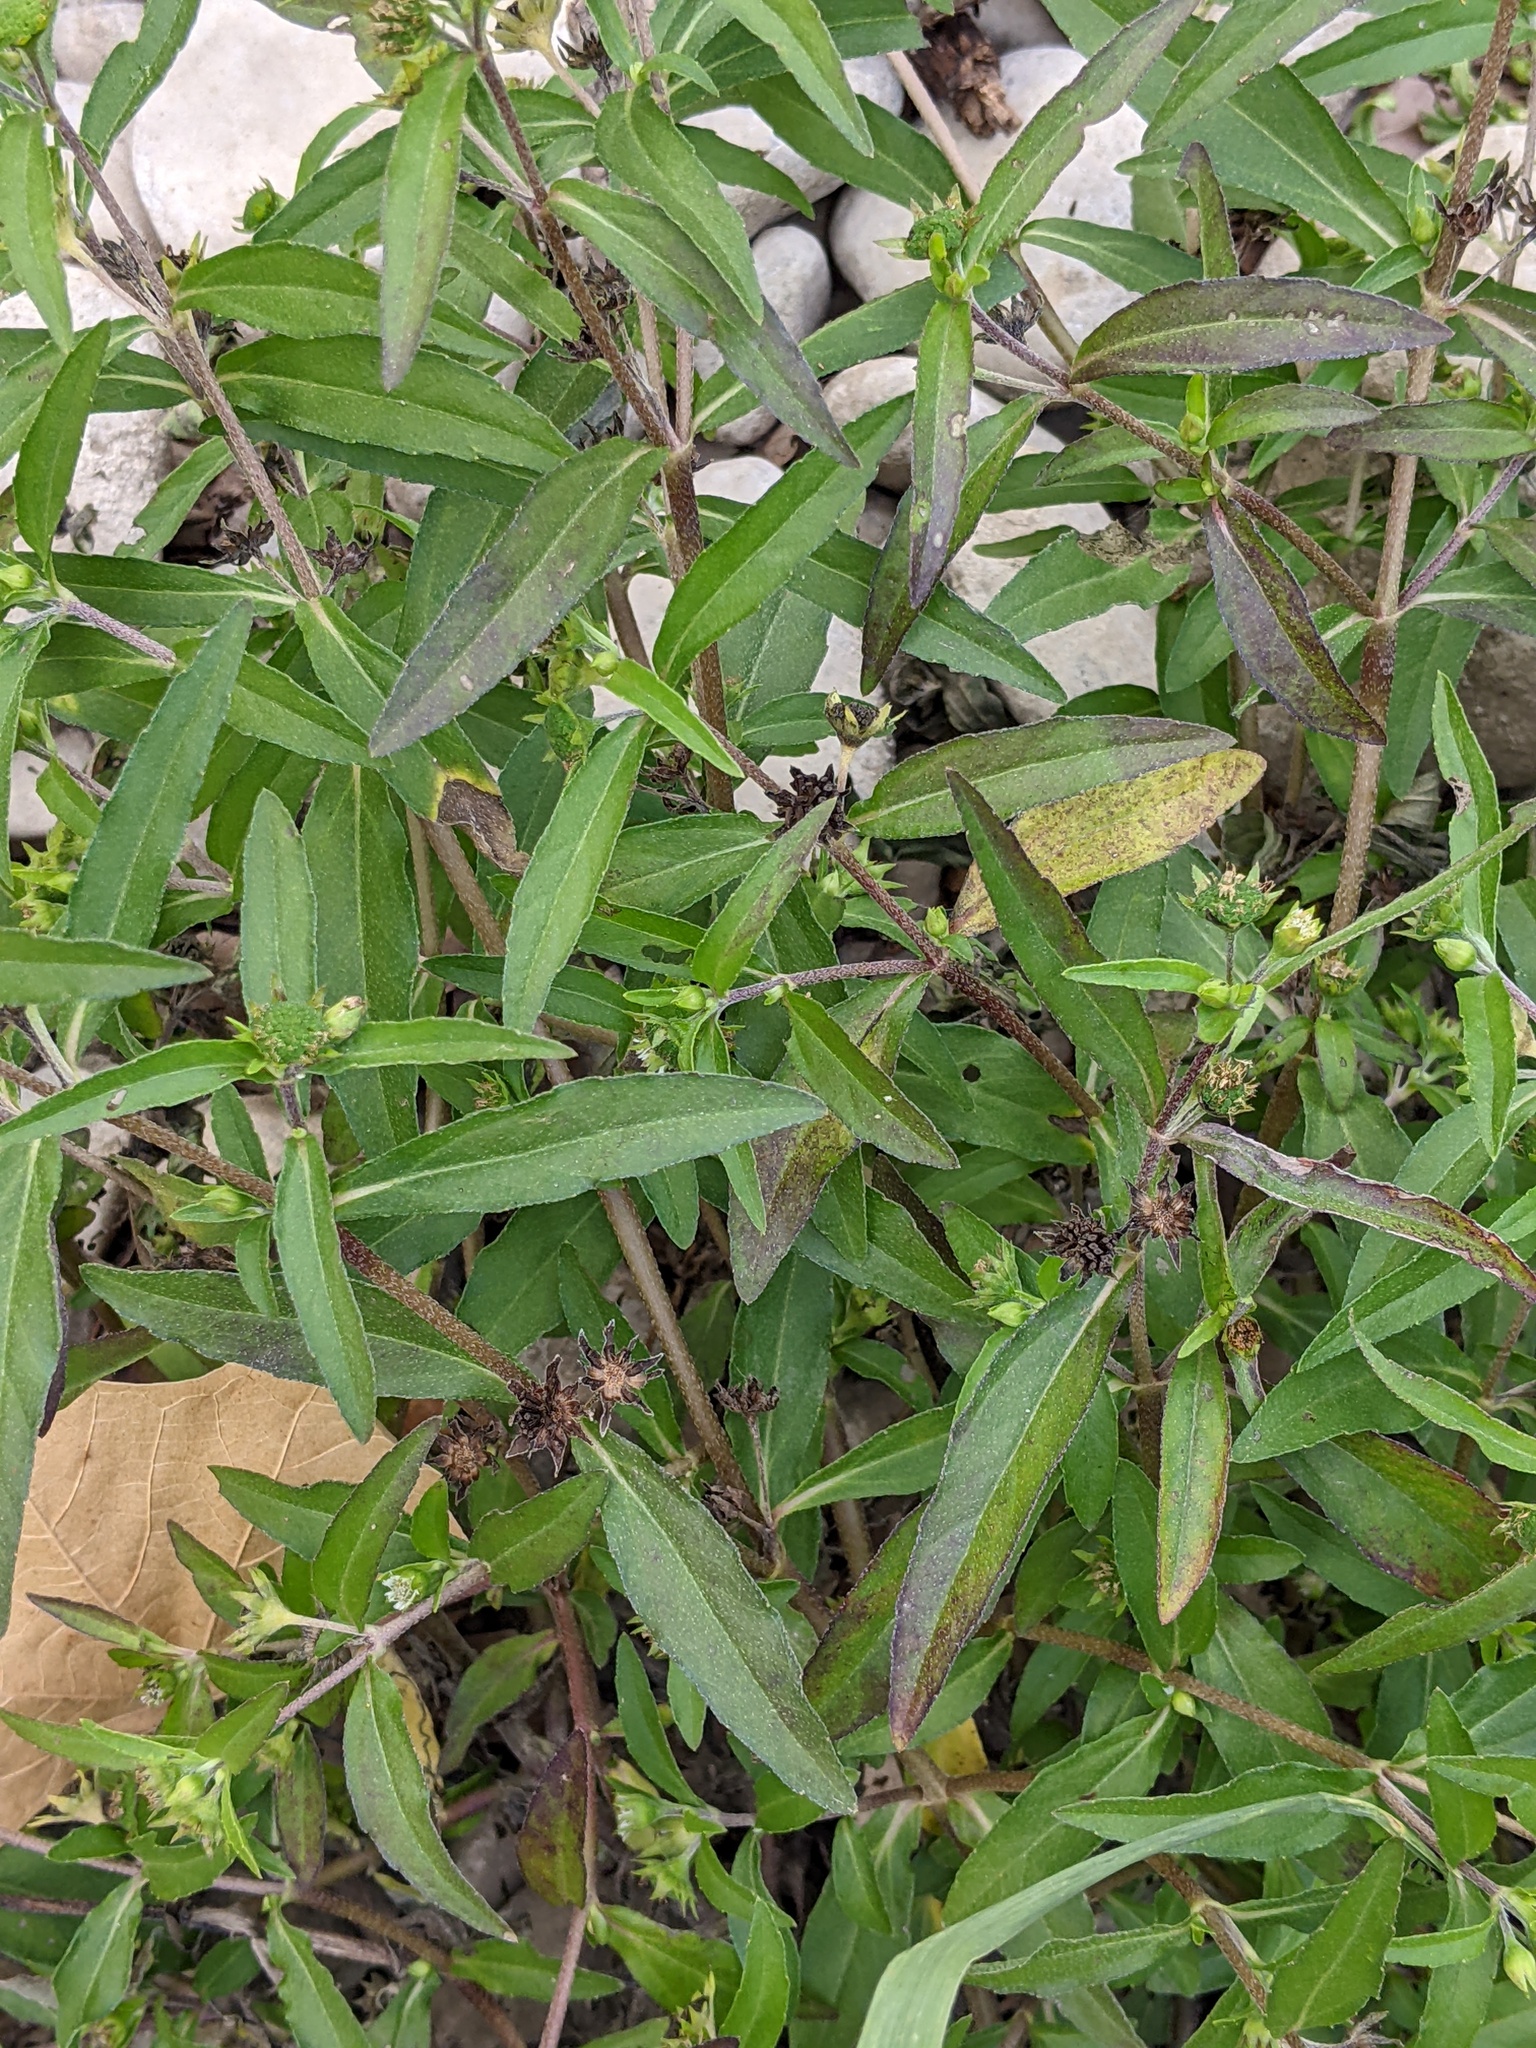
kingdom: Plantae
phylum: Tracheophyta
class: Magnoliopsida
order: Asterales
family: Asteraceae
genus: Eclipta
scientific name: Eclipta prostrata
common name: False daisy
